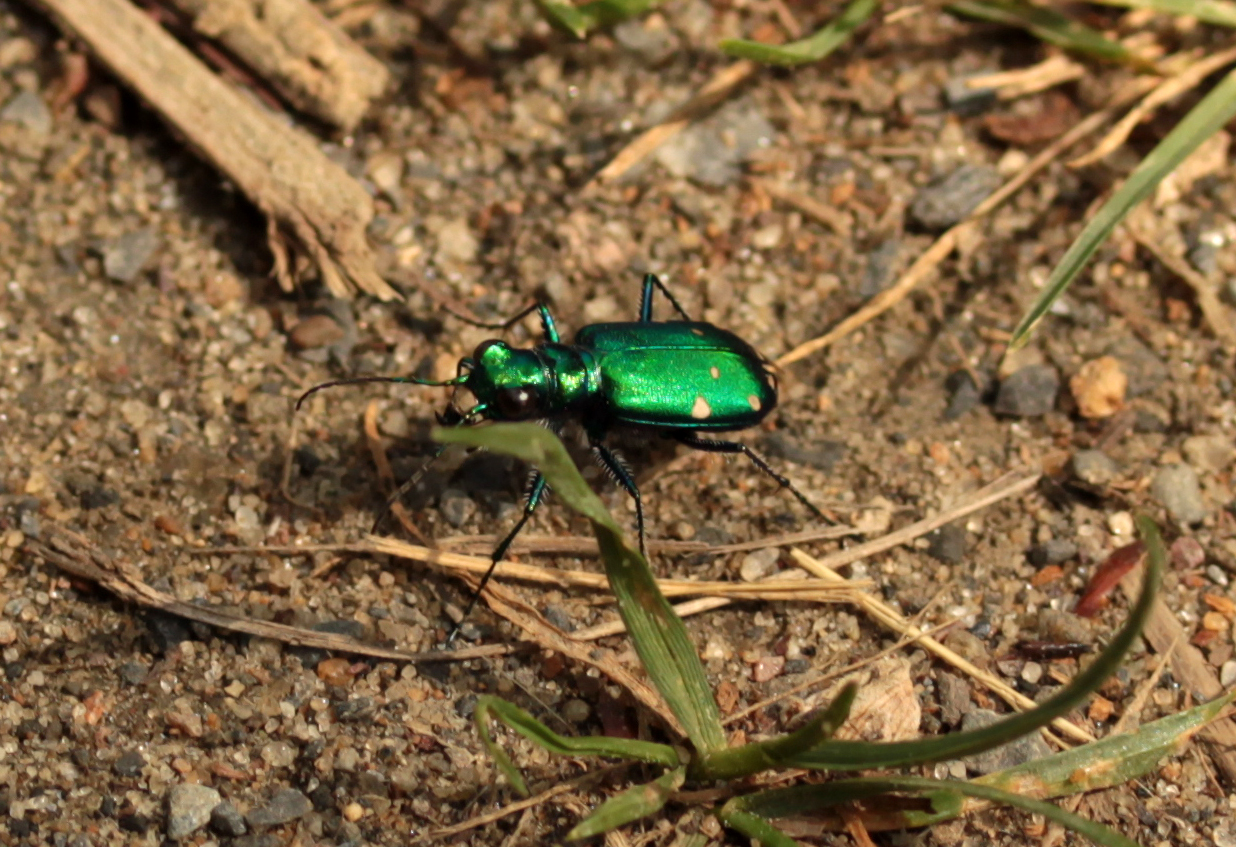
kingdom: Animalia
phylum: Arthropoda
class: Insecta
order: Coleoptera
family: Carabidae
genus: Cicindela
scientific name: Cicindela sexguttata
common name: Six-spotted tiger beetle
